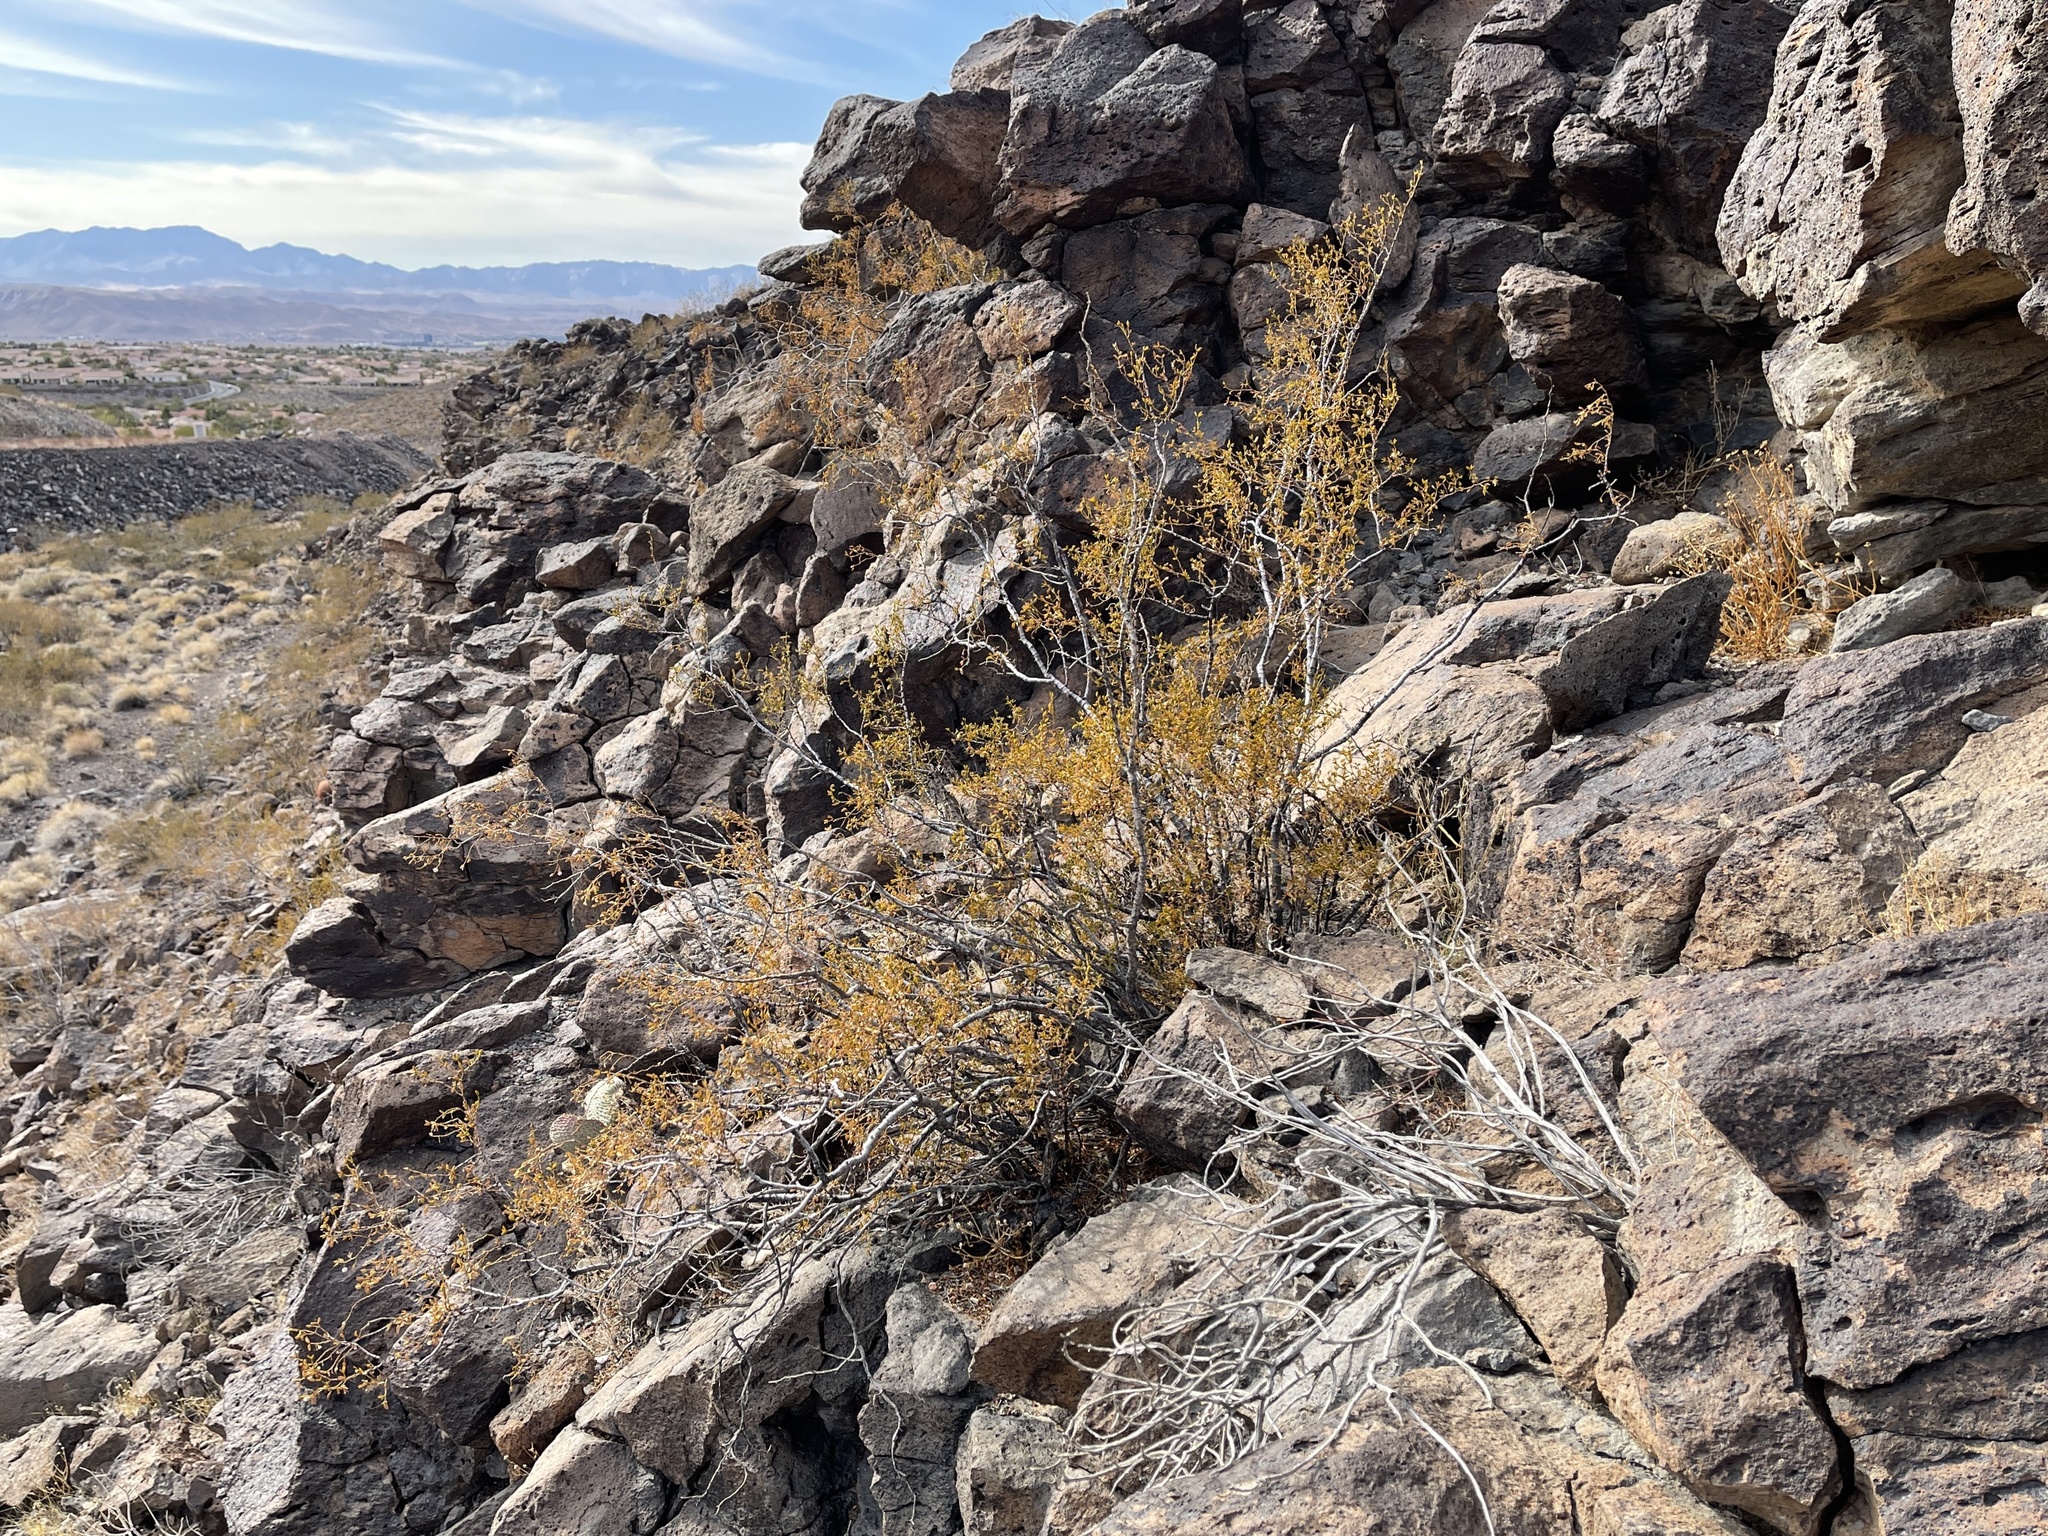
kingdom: Plantae
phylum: Tracheophyta
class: Magnoliopsida
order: Zygophyllales
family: Zygophyllaceae
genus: Larrea
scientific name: Larrea tridentata
